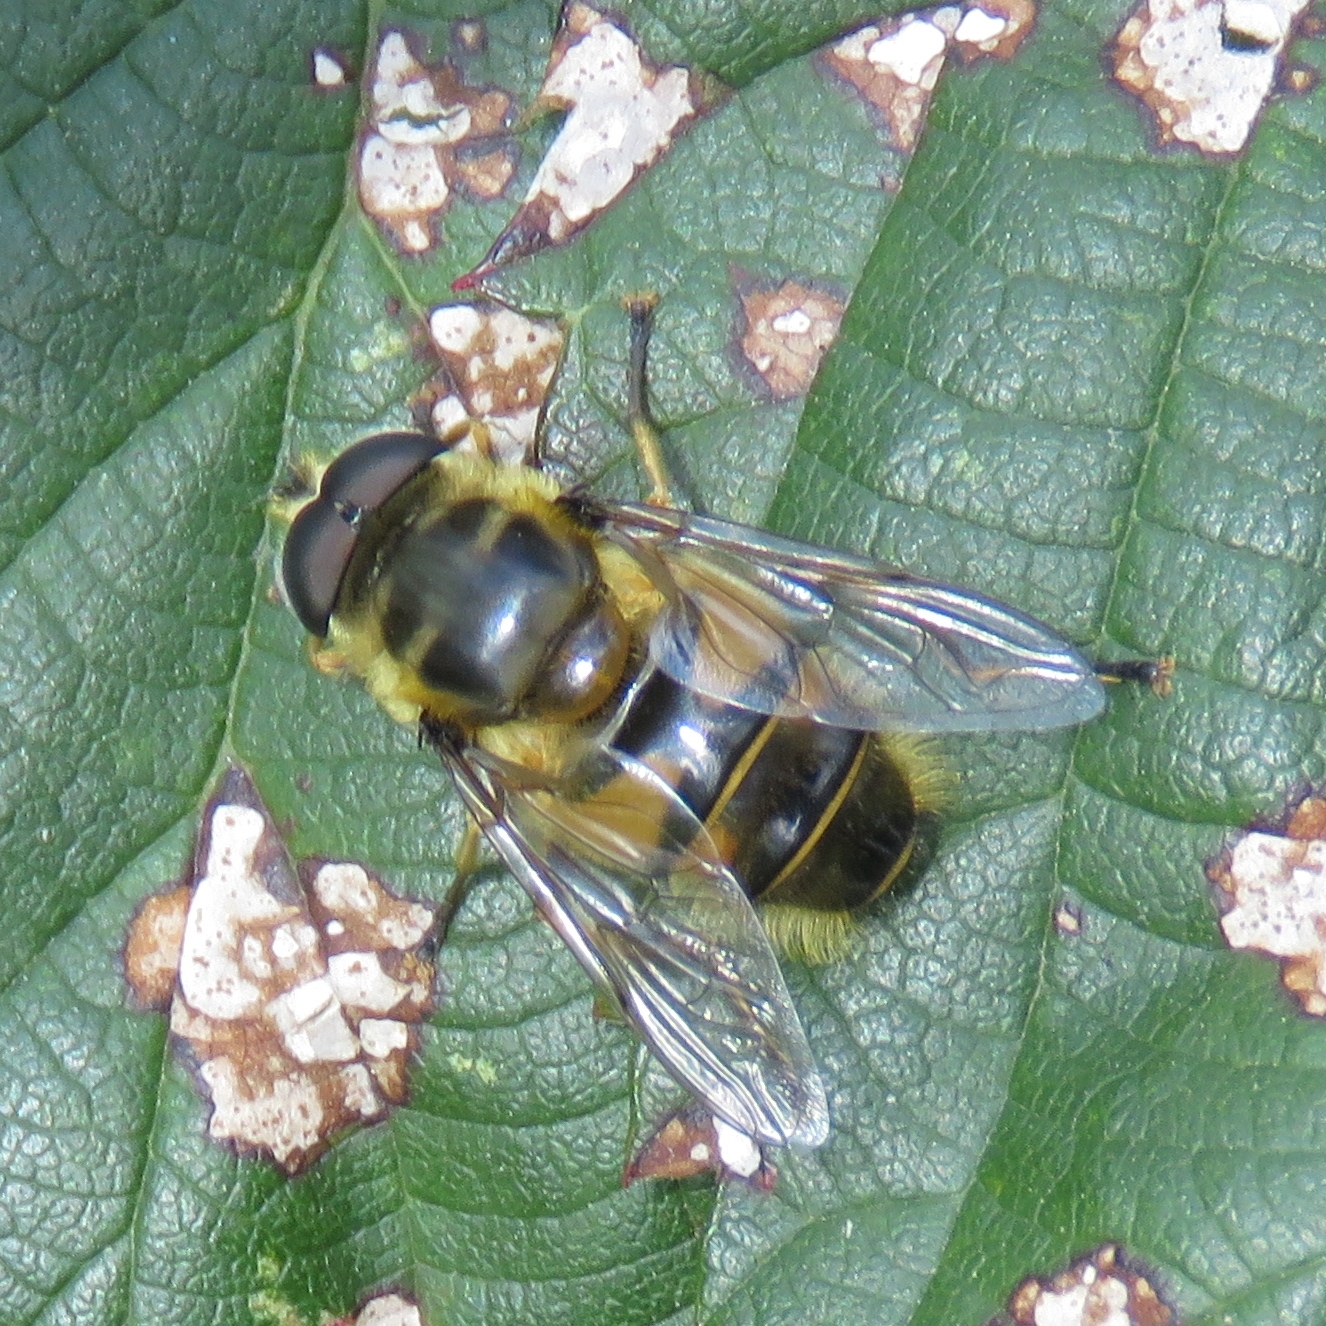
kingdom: Animalia
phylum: Arthropoda
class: Insecta
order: Diptera
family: Syrphidae
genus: Myathropa
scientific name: Myathropa florea
